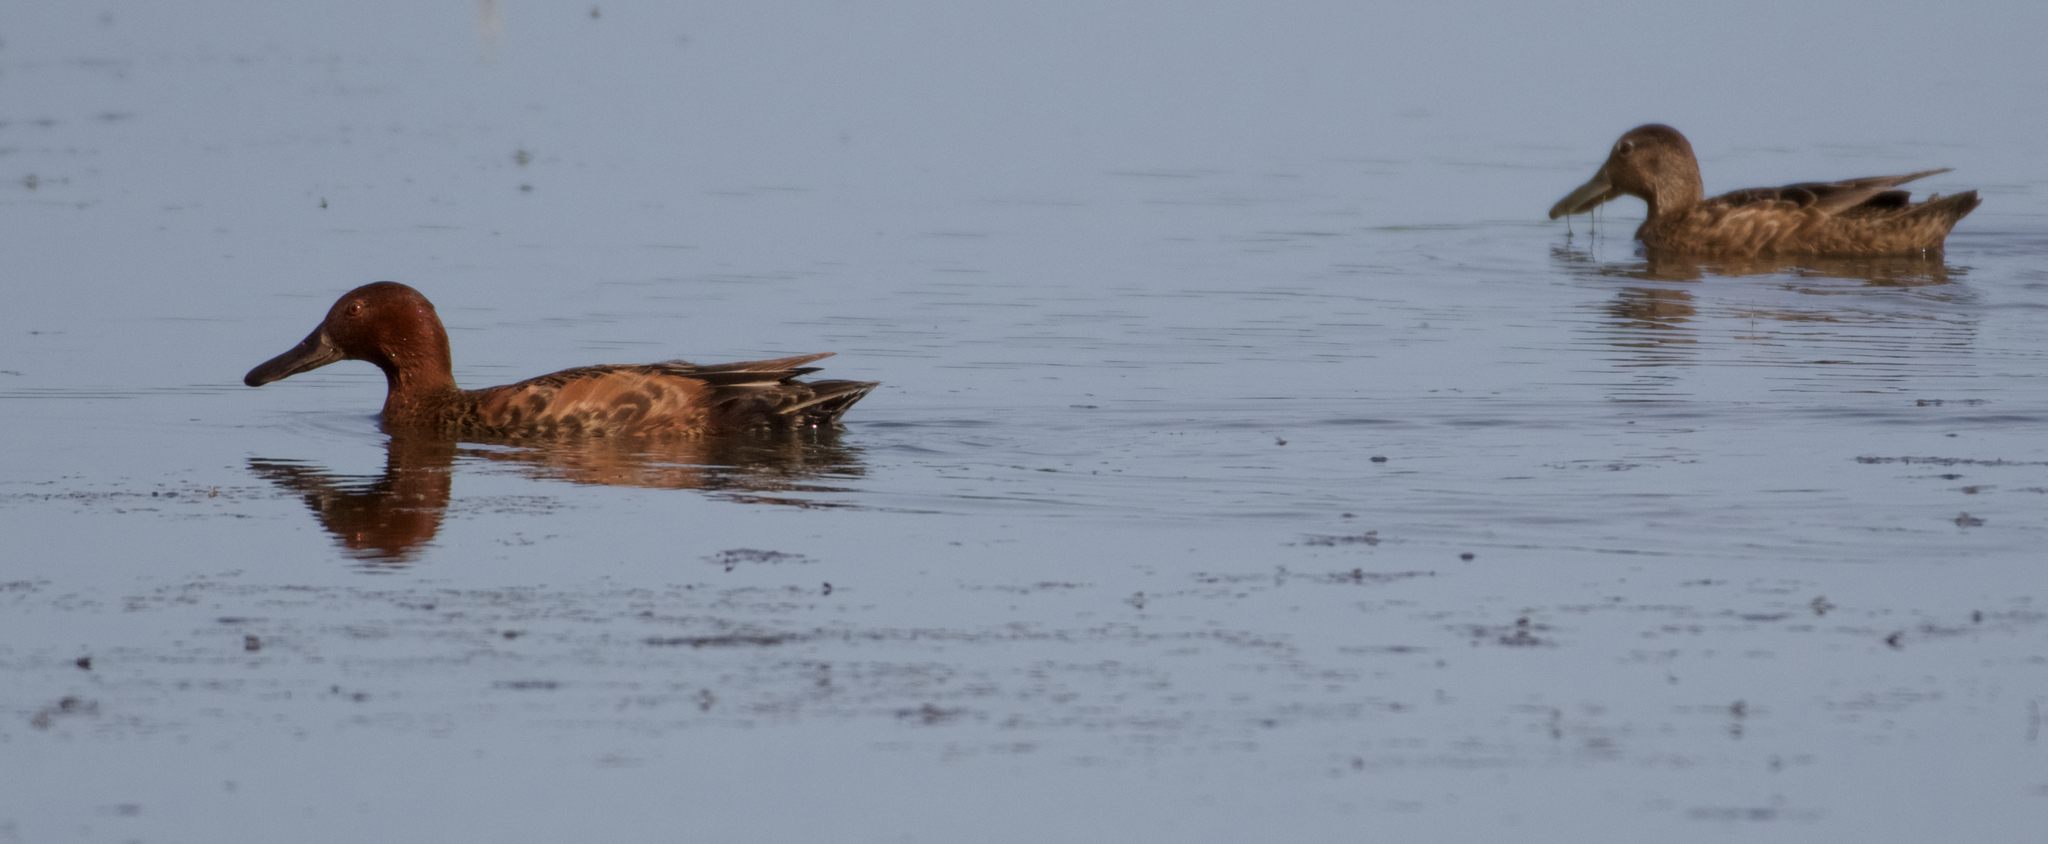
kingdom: Animalia
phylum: Chordata
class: Aves
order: Anseriformes
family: Anatidae
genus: Spatula
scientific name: Spatula cyanoptera
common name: Cinnamon teal
